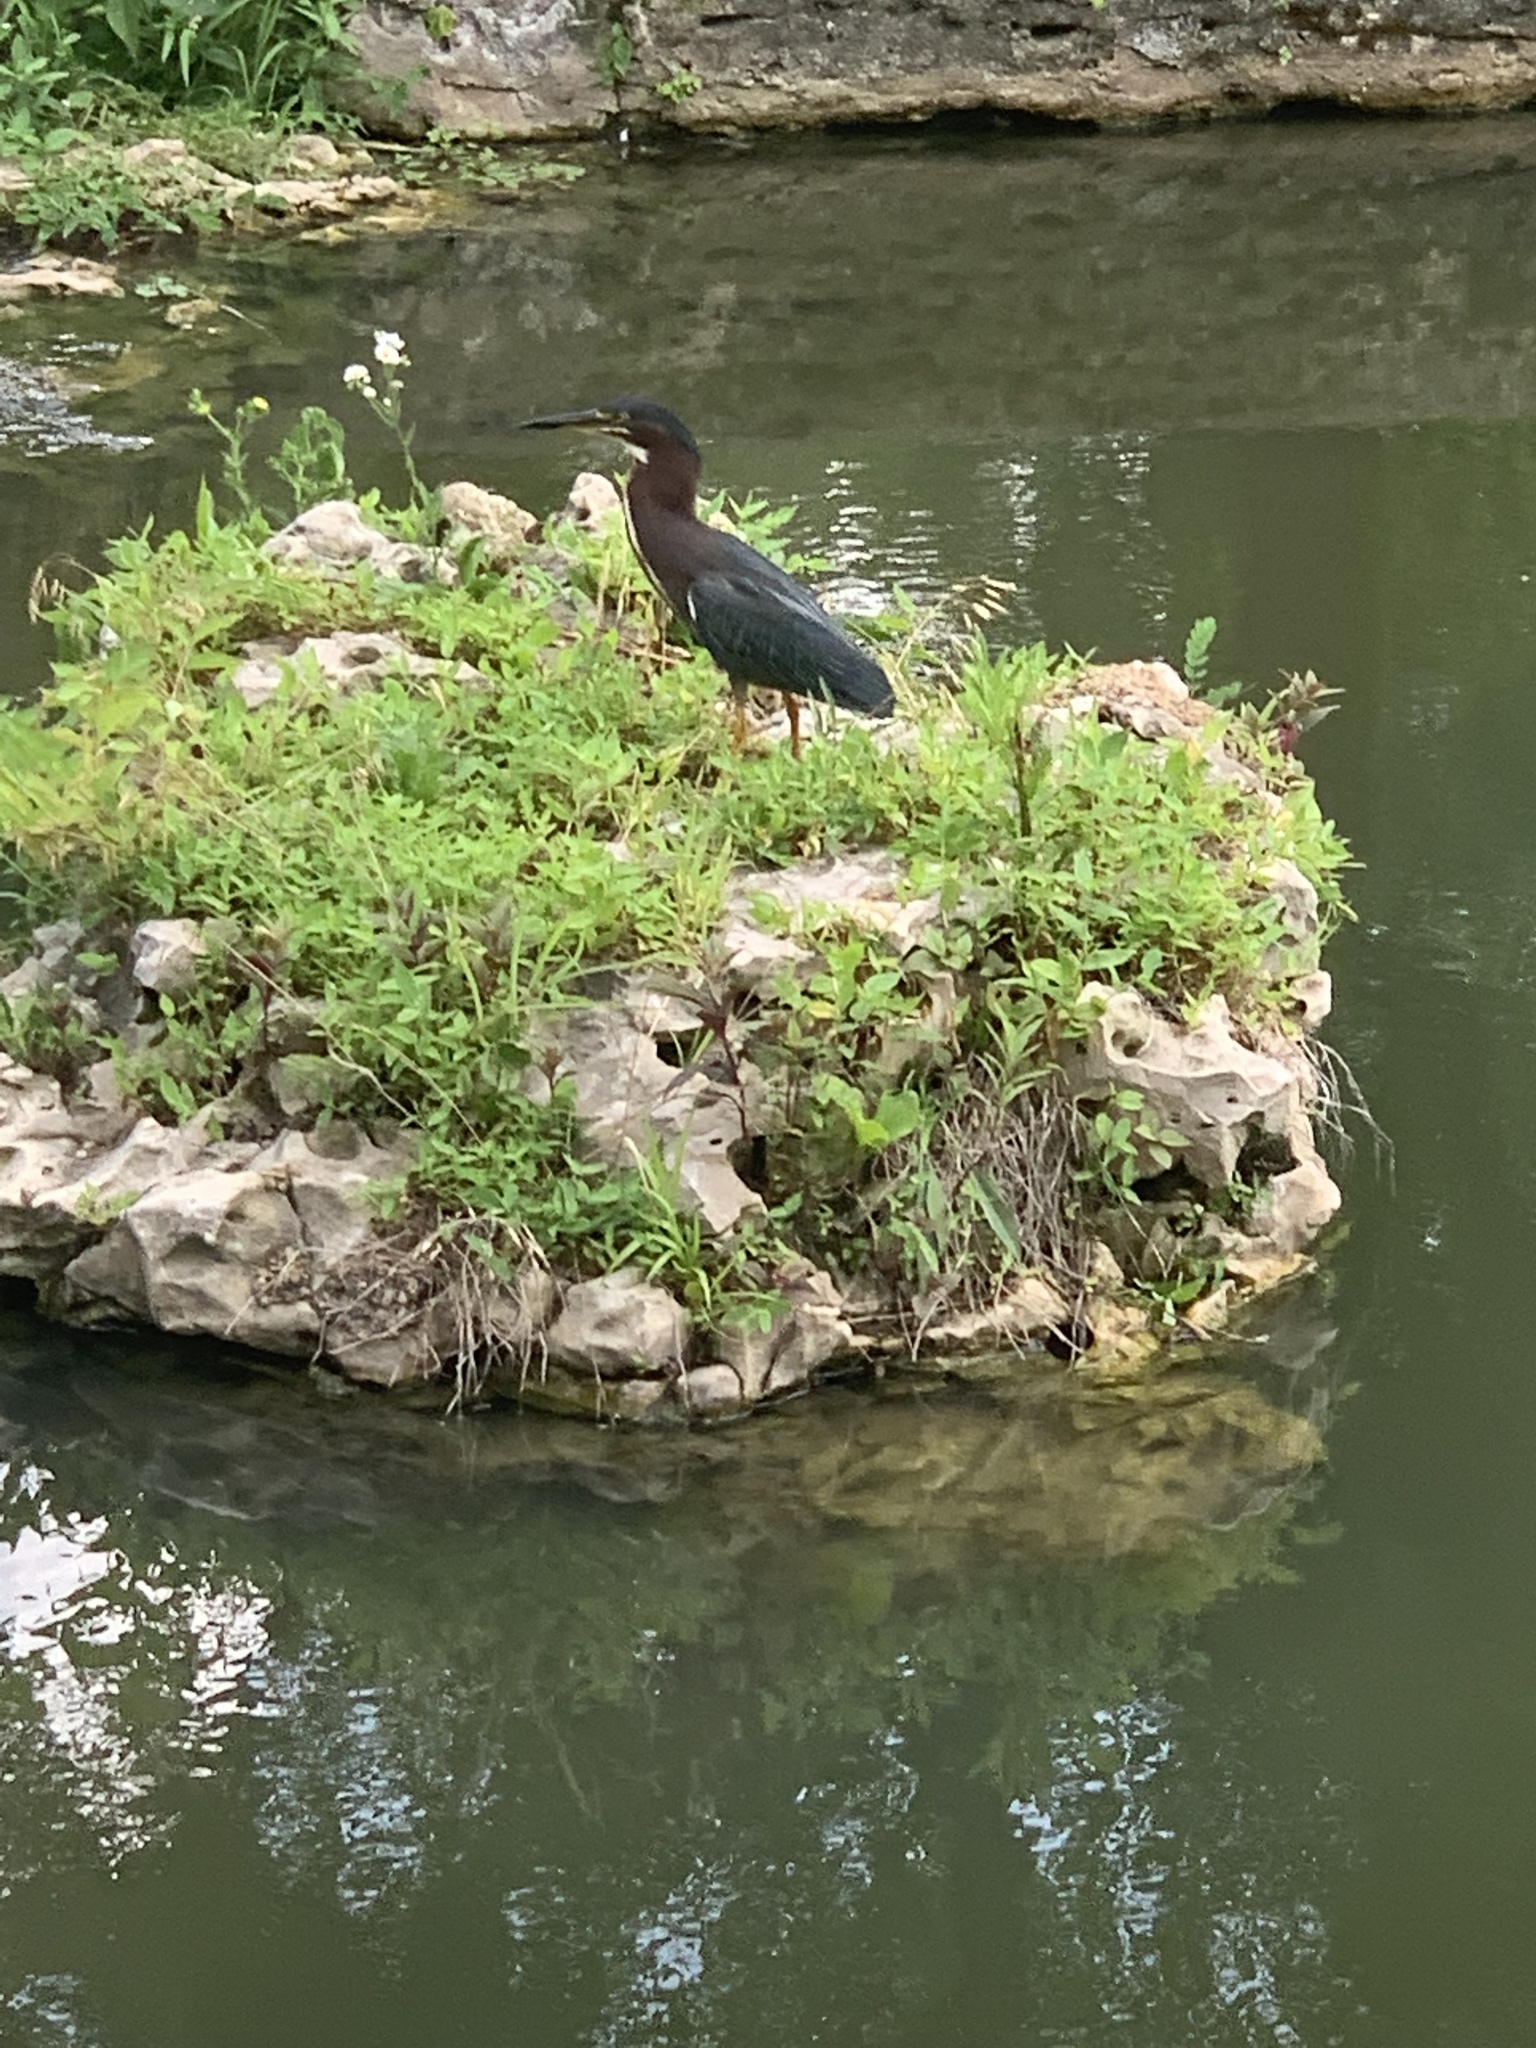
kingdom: Animalia
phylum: Chordata
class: Aves
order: Pelecaniformes
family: Ardeidae
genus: Butorides
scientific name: Butorides virescens
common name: Green heron
